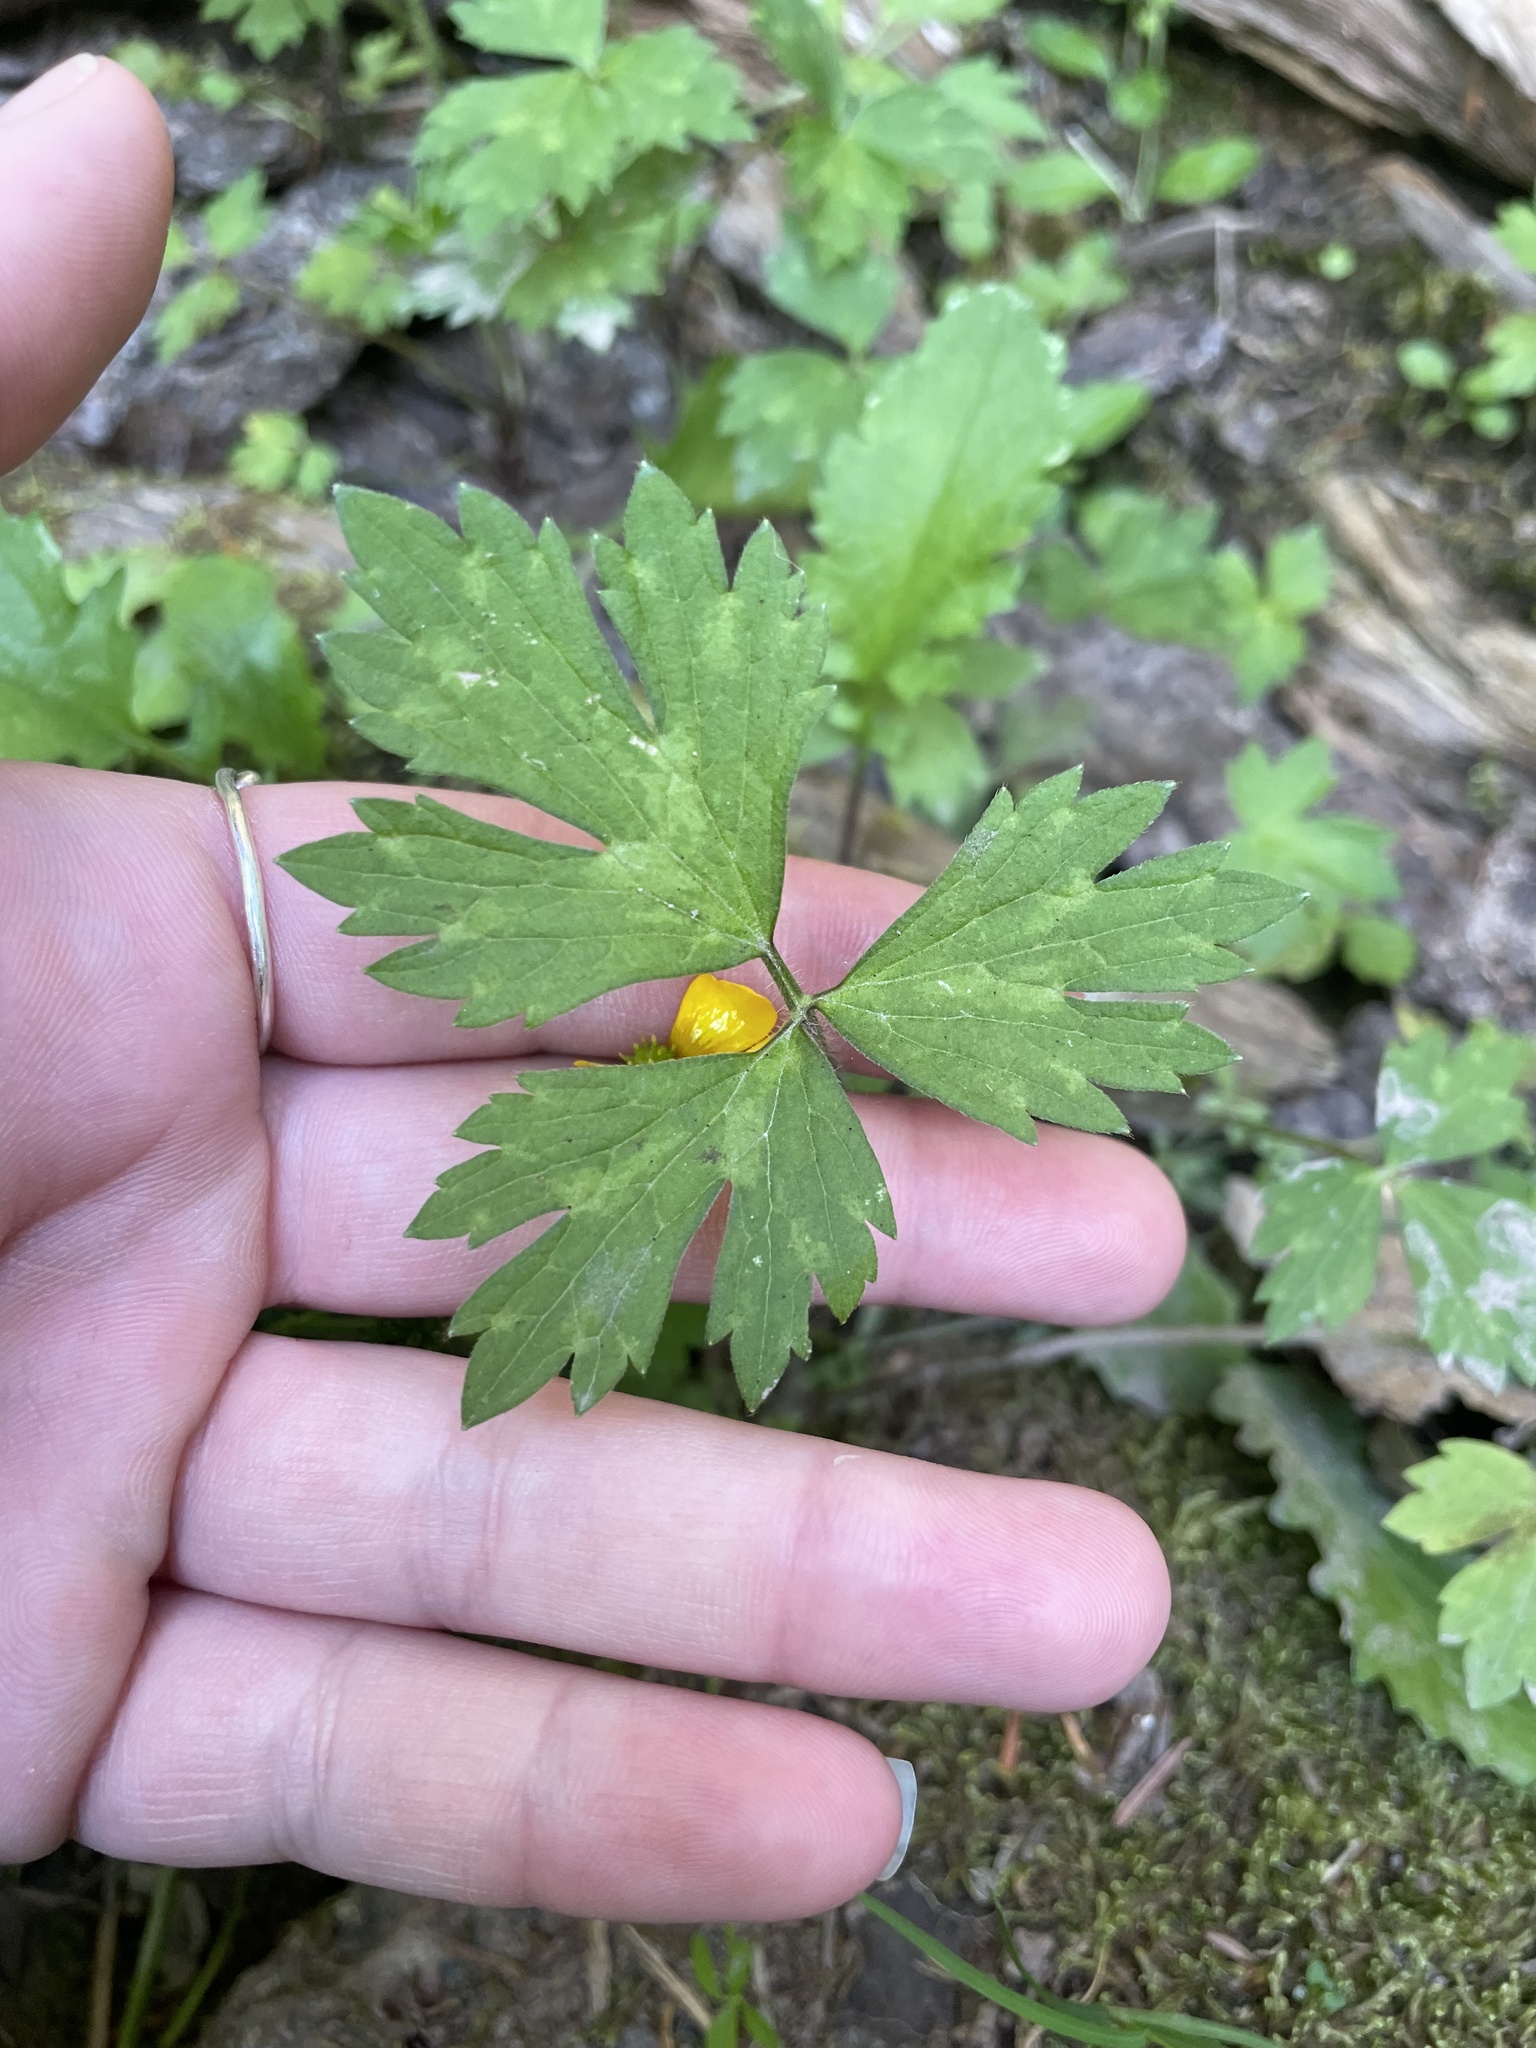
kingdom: Plantae
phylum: Tracheophyta
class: Magnoliopsida
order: Ranunculales
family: Ranunculaceae
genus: Ranunculus
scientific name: Ranunculus repens
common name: Creeping buttercup
